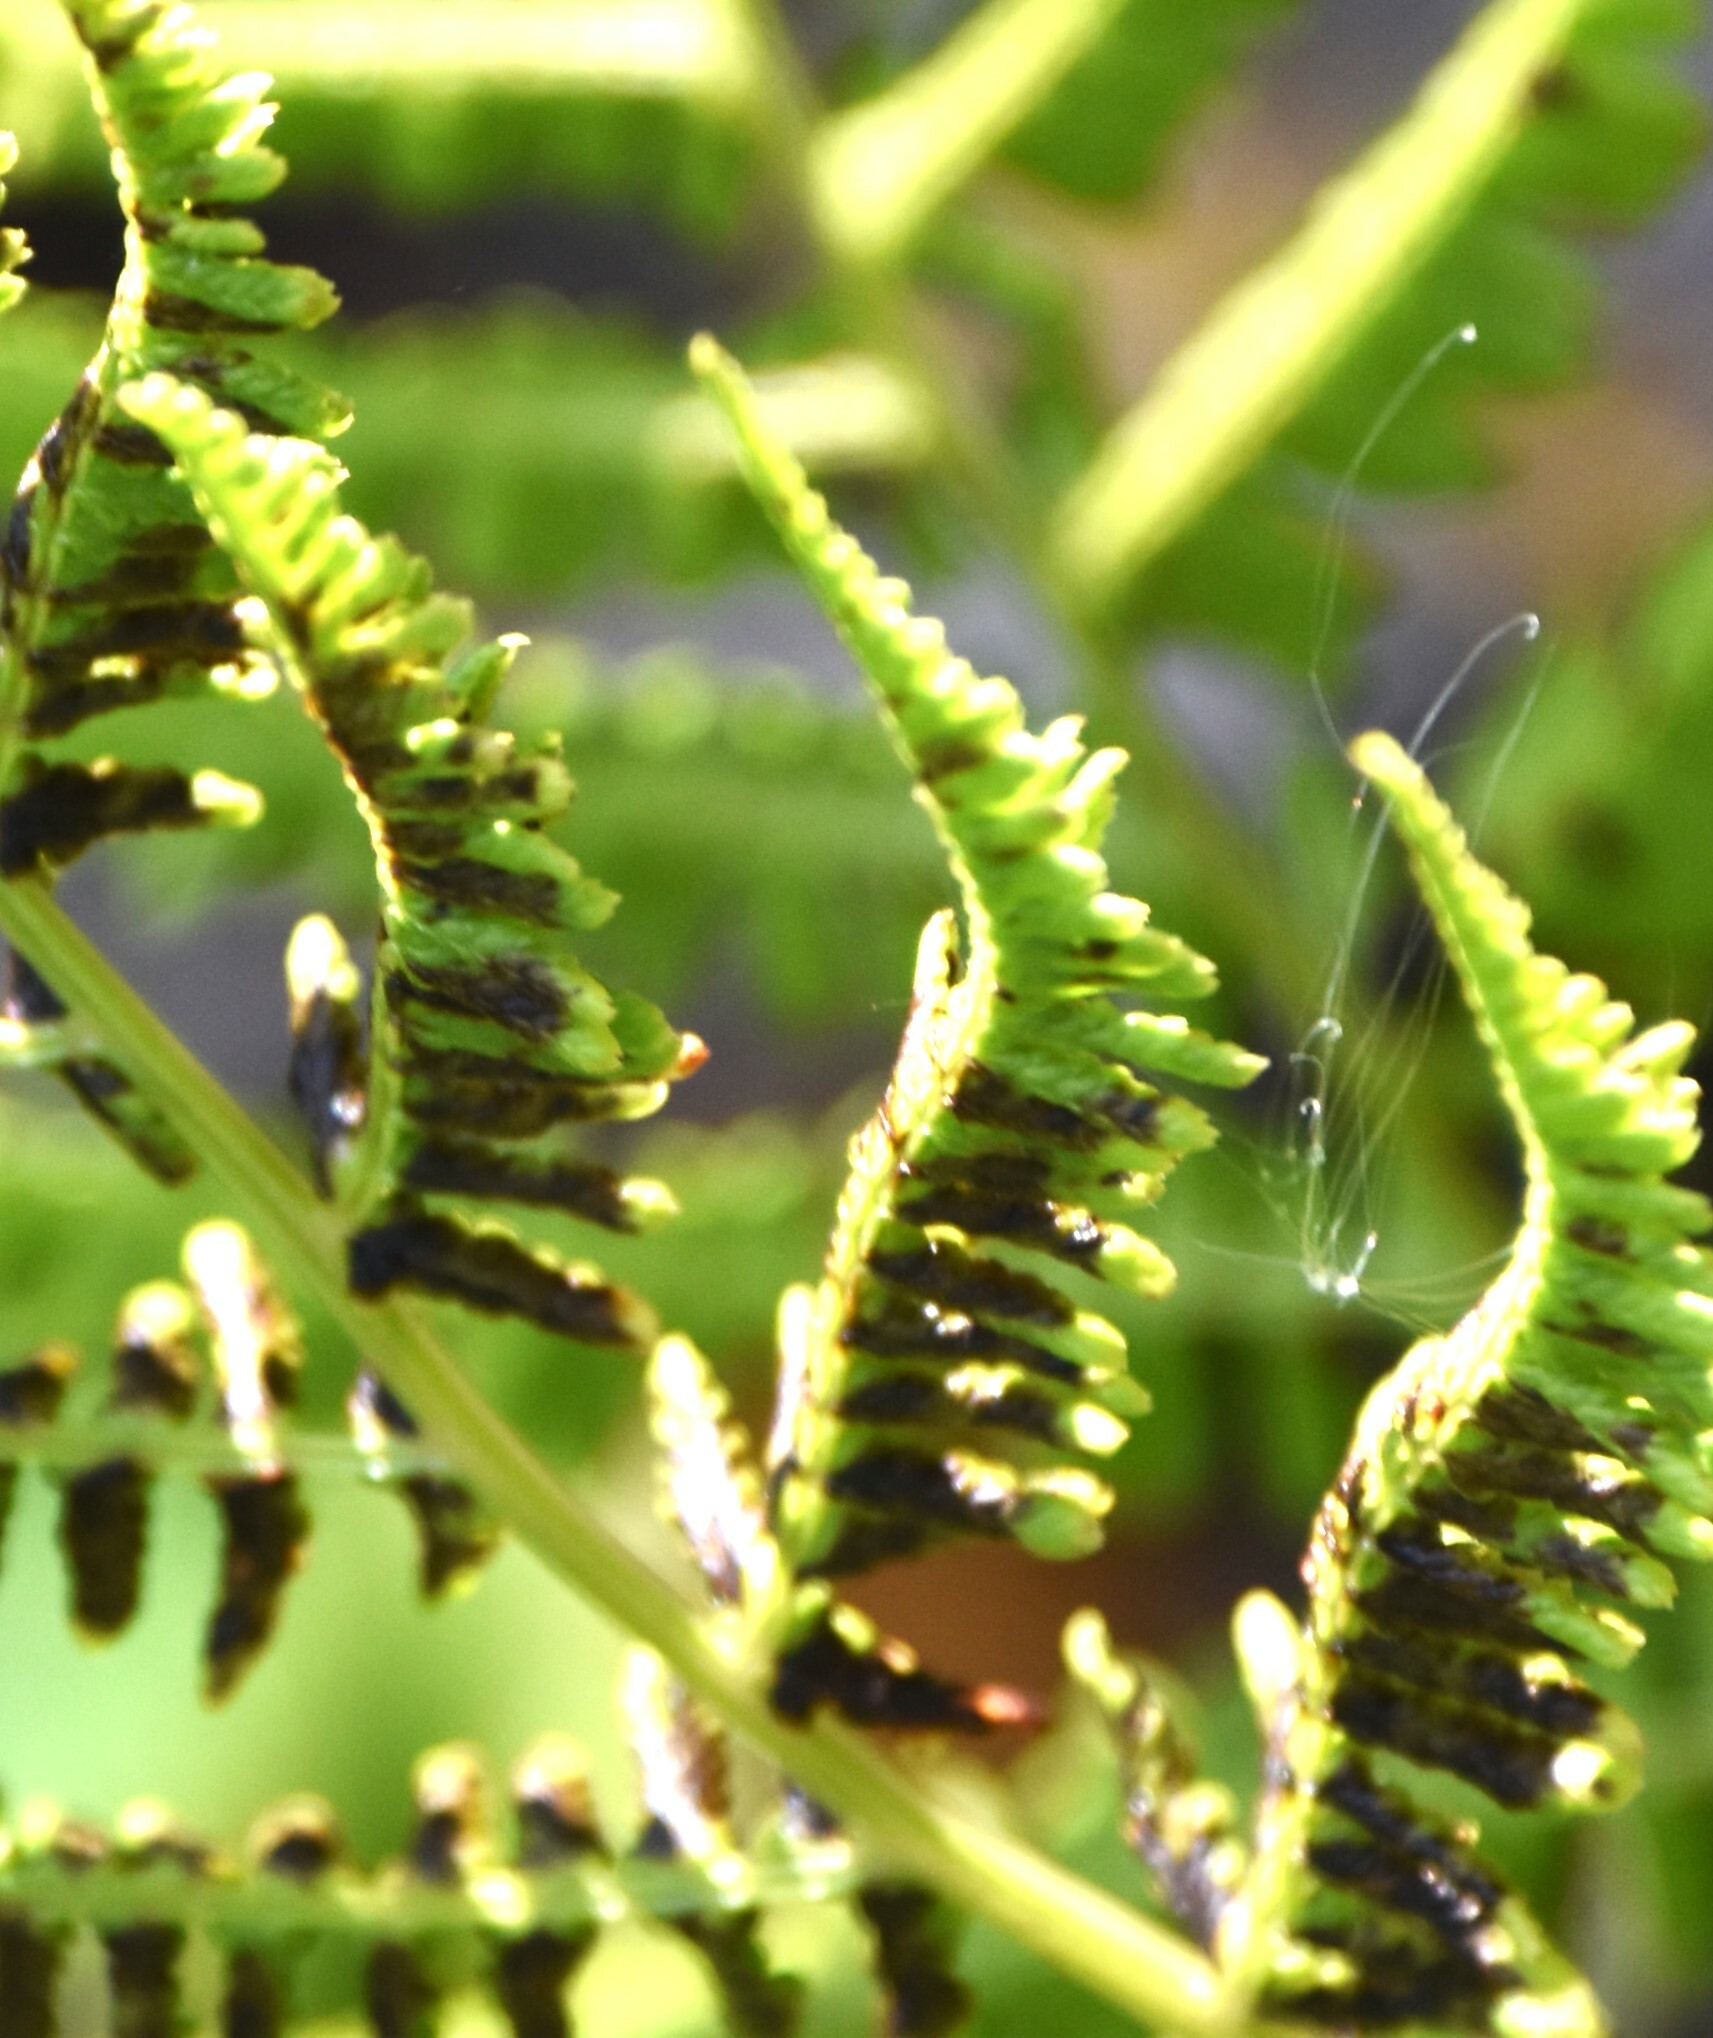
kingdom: Plantae
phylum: Tracheophyta
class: Polypodiopsida
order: Polypodiales
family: Athyriaceae
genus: Athyrium
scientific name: Athyrium filix-femina
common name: Lady fern
